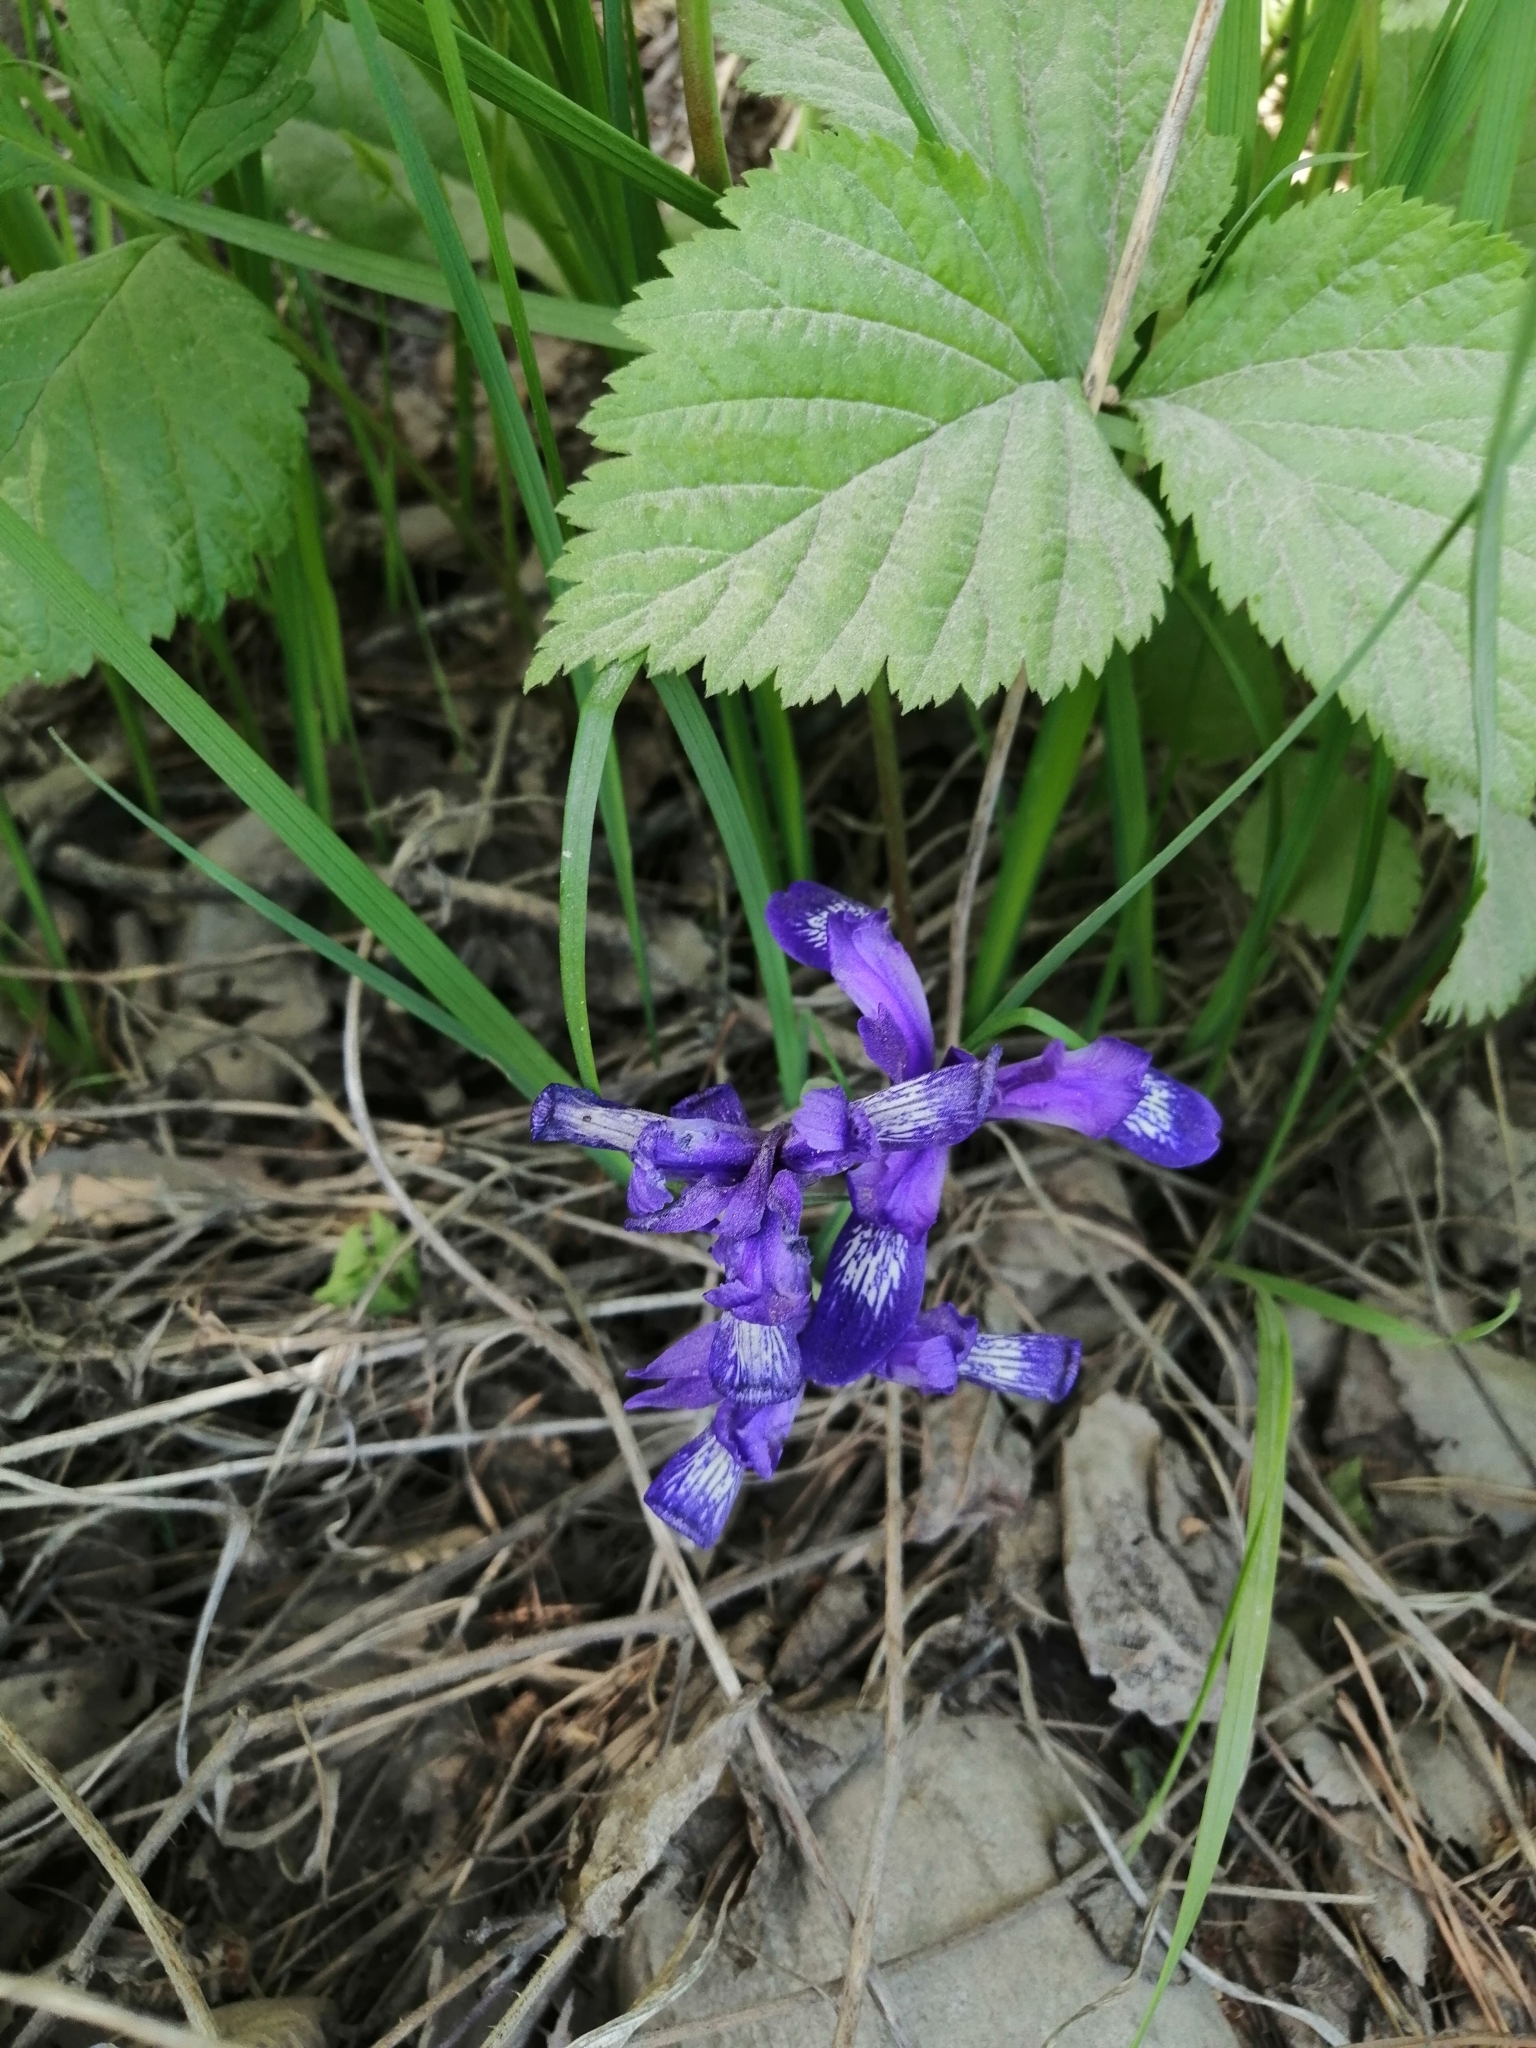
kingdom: Plantae
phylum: Tracheophyta
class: Liliopsida
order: Asparagales
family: Iridaceae
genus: Iris
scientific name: Iris ruthenica
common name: Purple-bract iris
